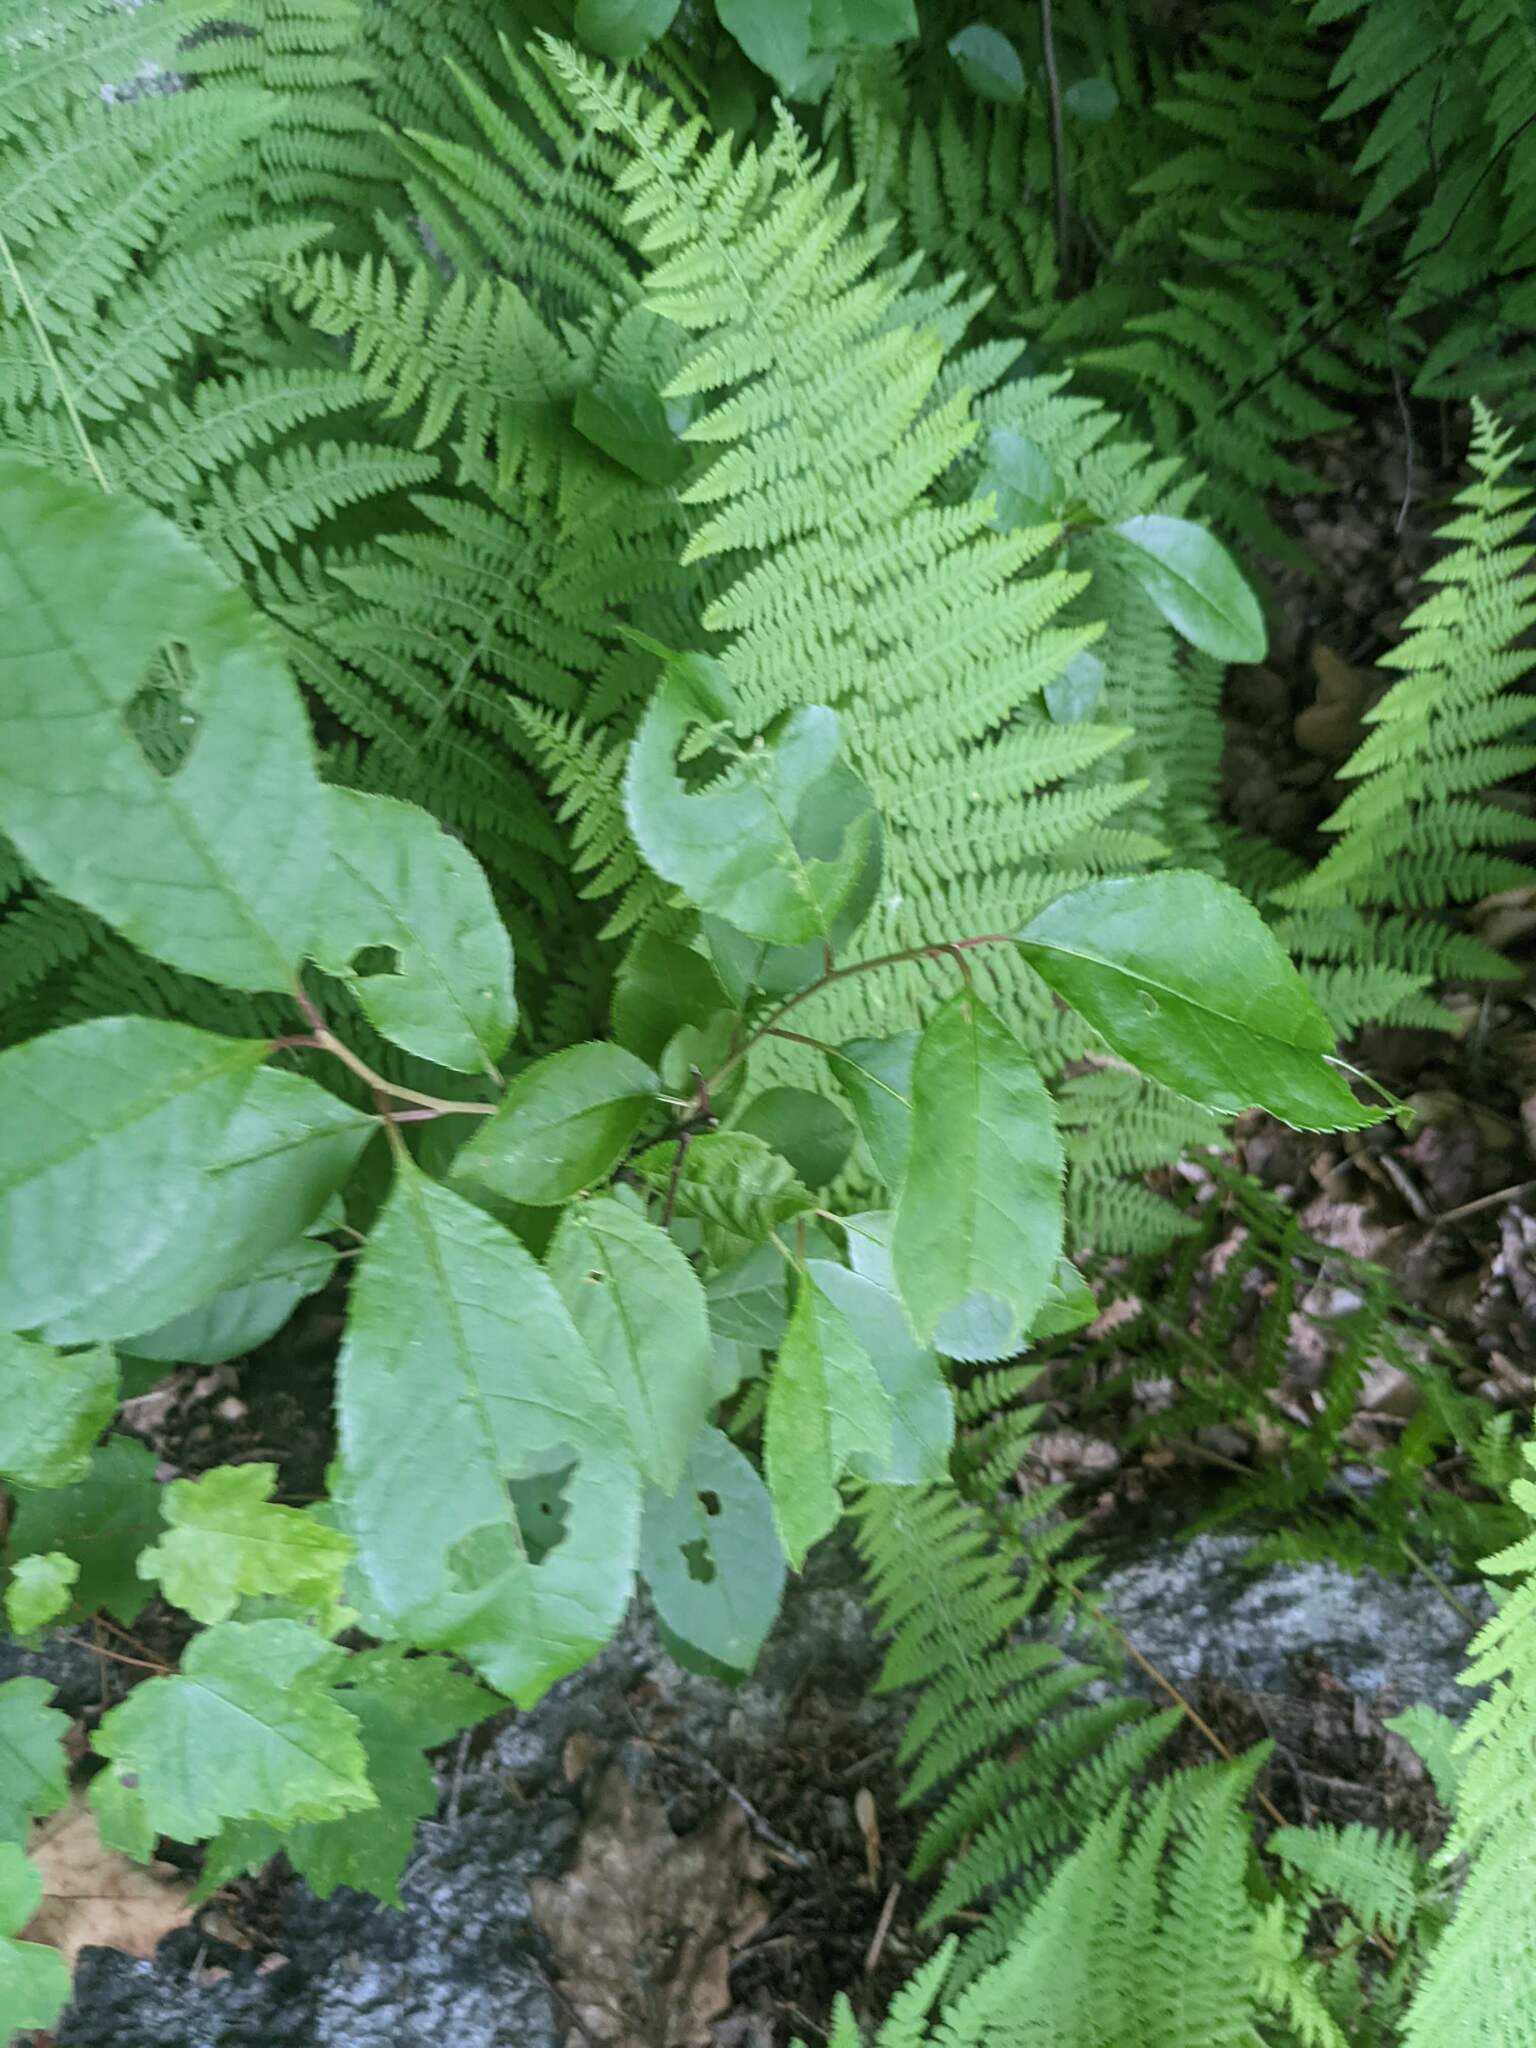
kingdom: Plantae
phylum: Tracheophyta
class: Polypodiopsida
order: Polypodiales
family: Dennstaedtiaceae
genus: Sitobolium
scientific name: Sitobolium punctilobum
